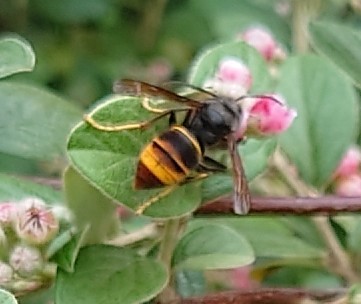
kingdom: Animalia
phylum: Arthropoda
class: Insecta
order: Hymenoptera
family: Vespidae
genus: Vespa
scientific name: Vespa velutina
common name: Asian hornet
